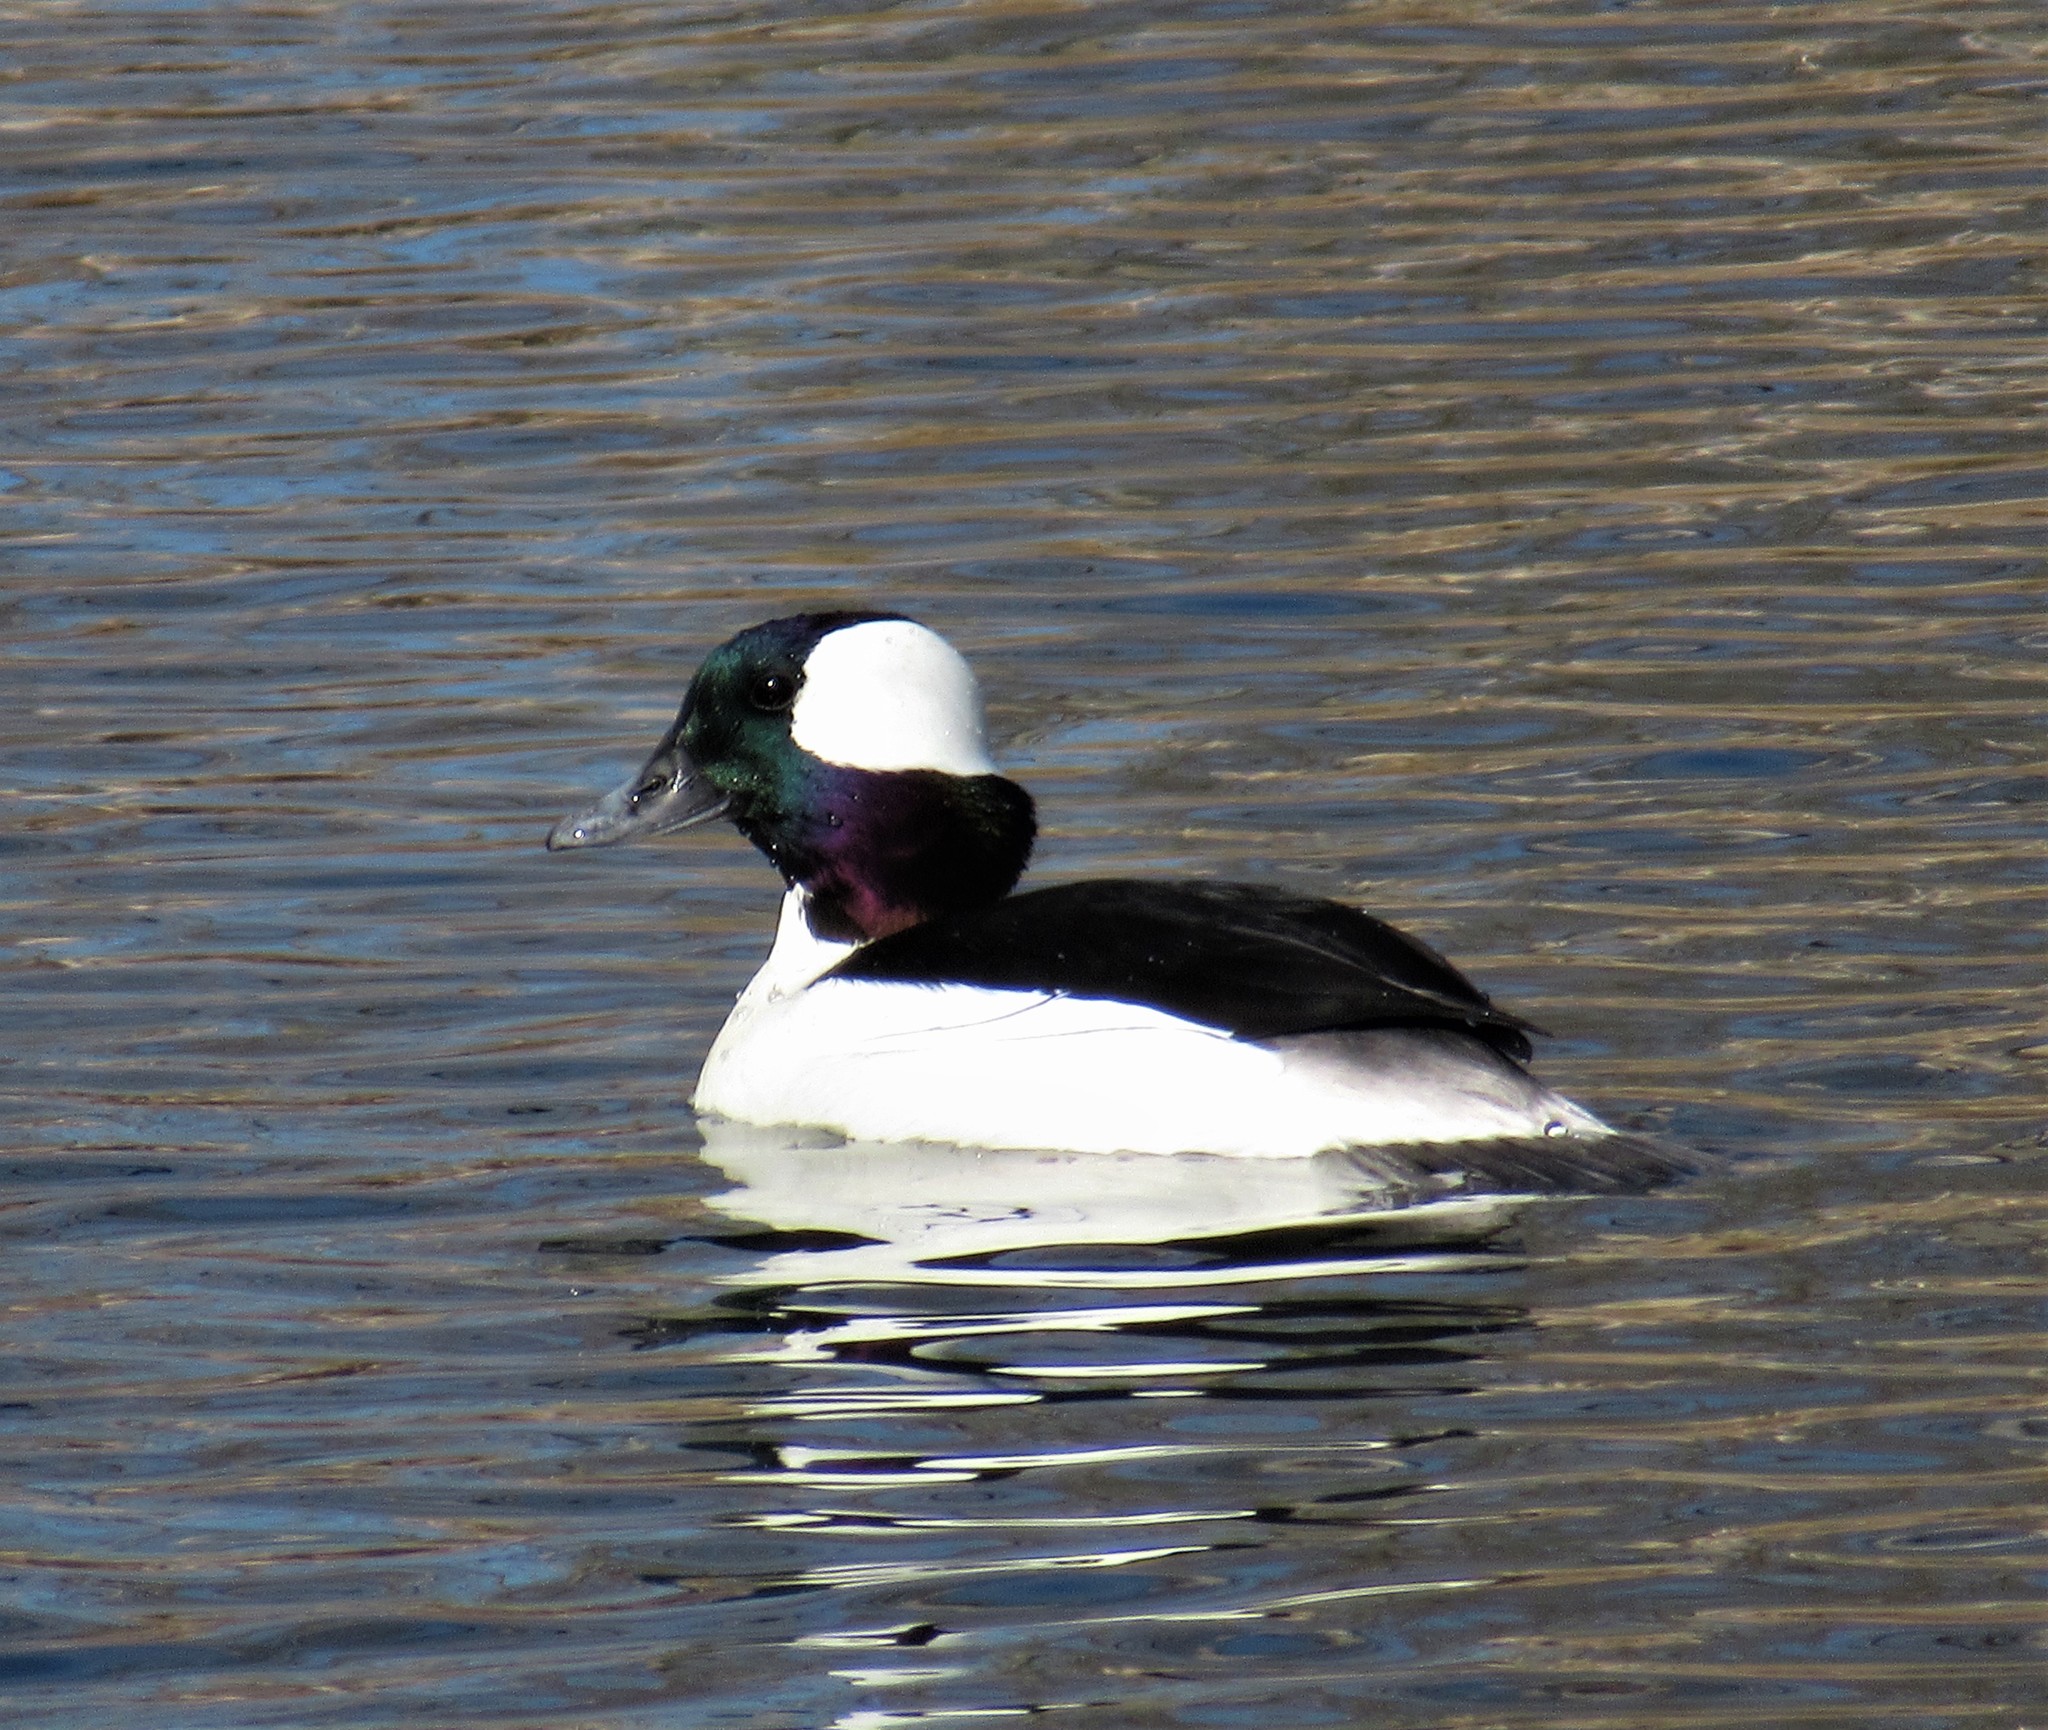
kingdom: Animalia
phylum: Chordata
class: Aves
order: Anseriformes
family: Anatidae
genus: Bucephala
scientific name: Bucephala albeola
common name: Bufflehead
